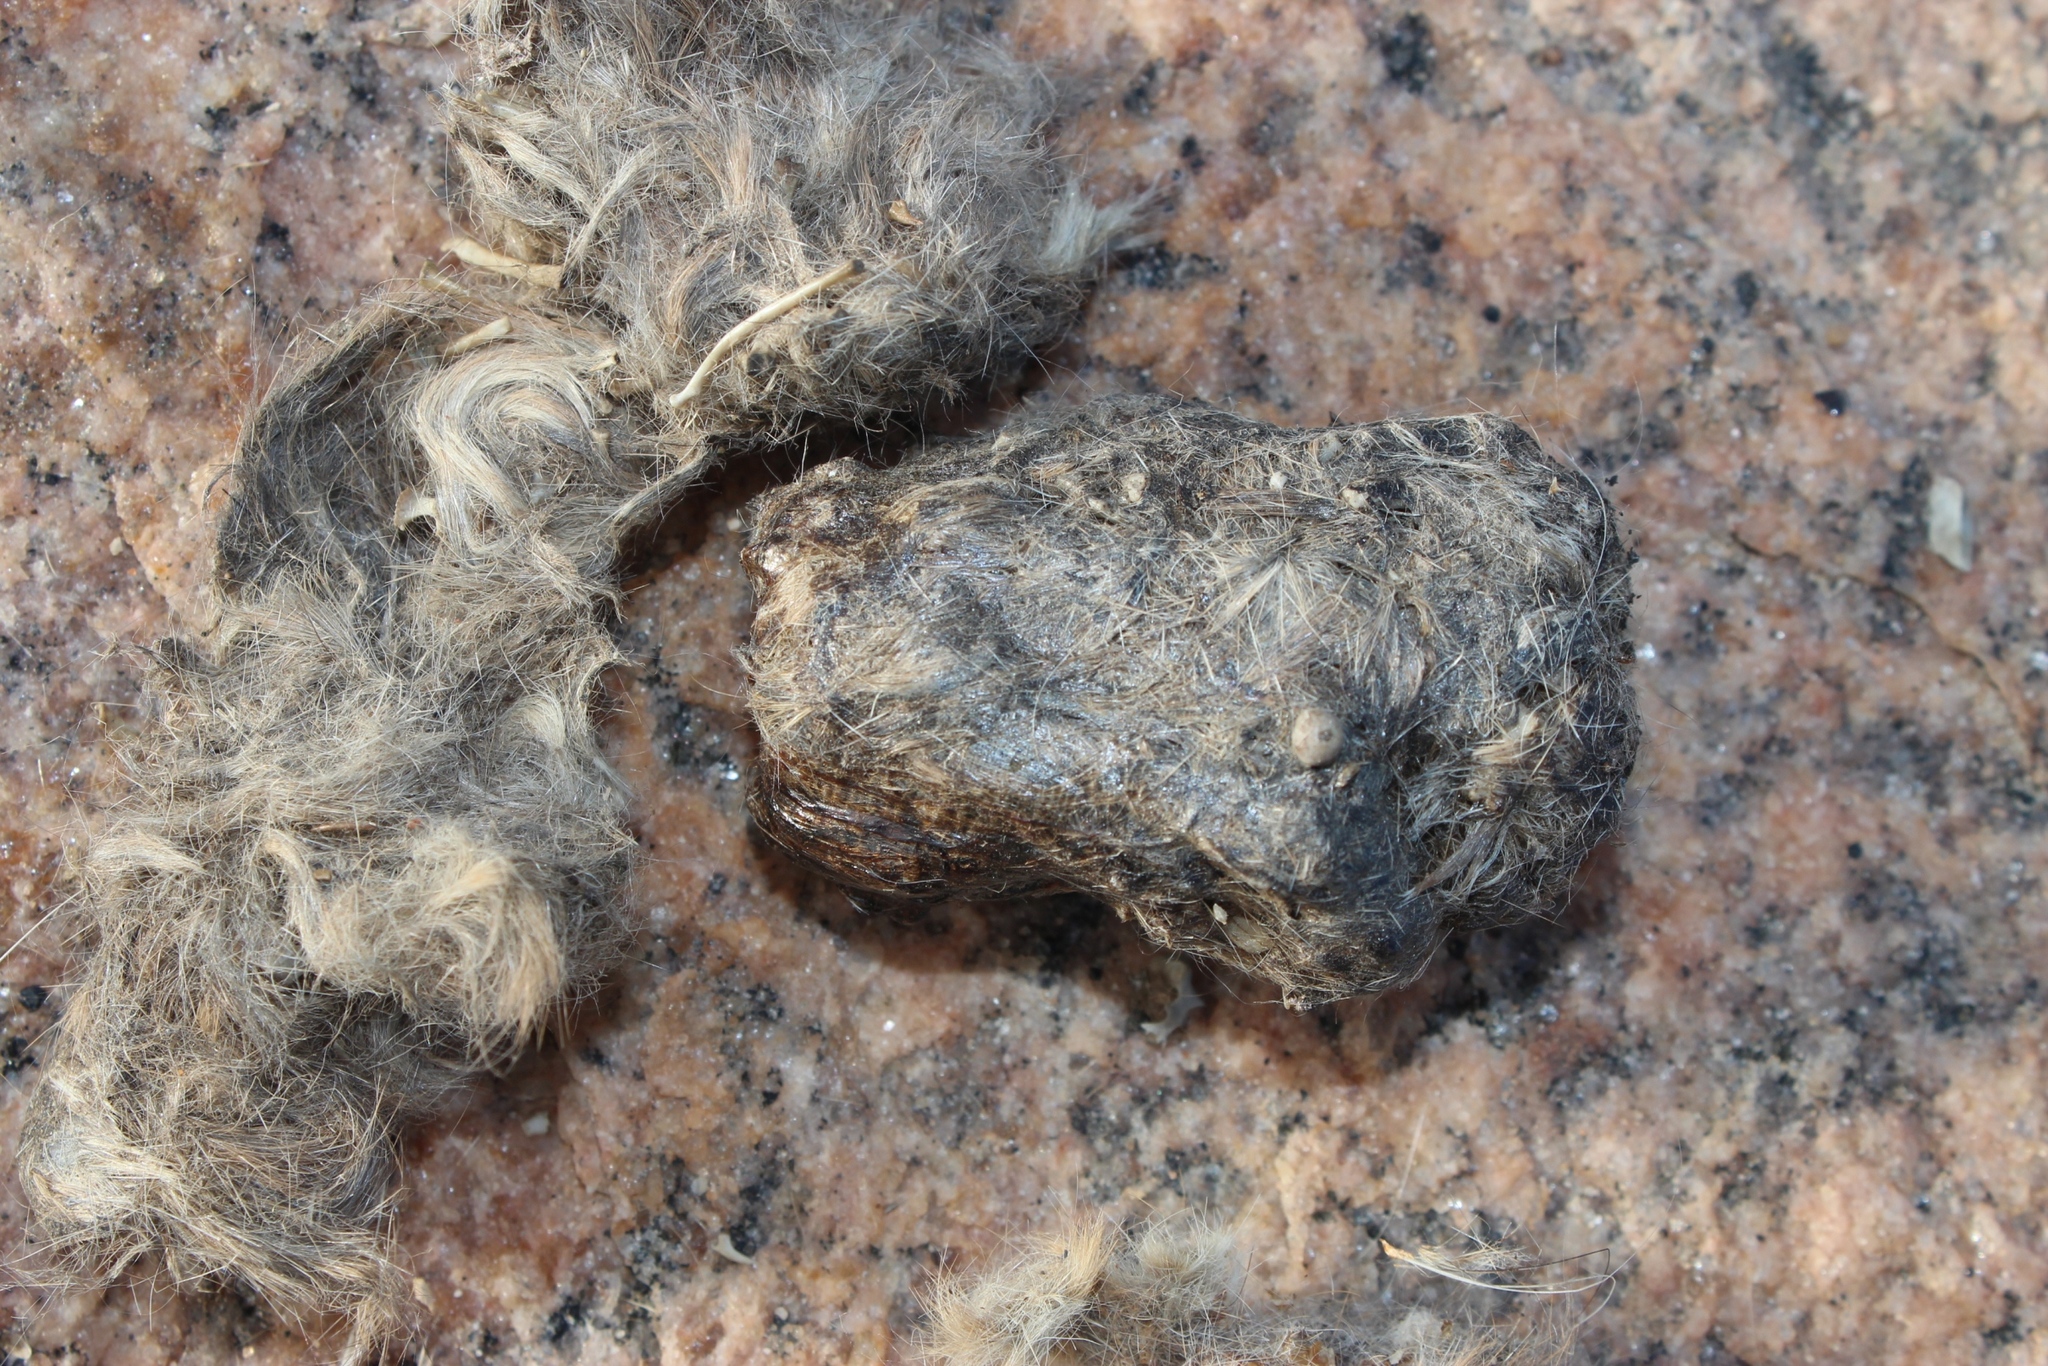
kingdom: Animalia
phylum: Chordata
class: Aves
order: Strigiformes
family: Strigidae
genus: Bubo
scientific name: Bubo lacteus
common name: Verreaux's eagle-owl
